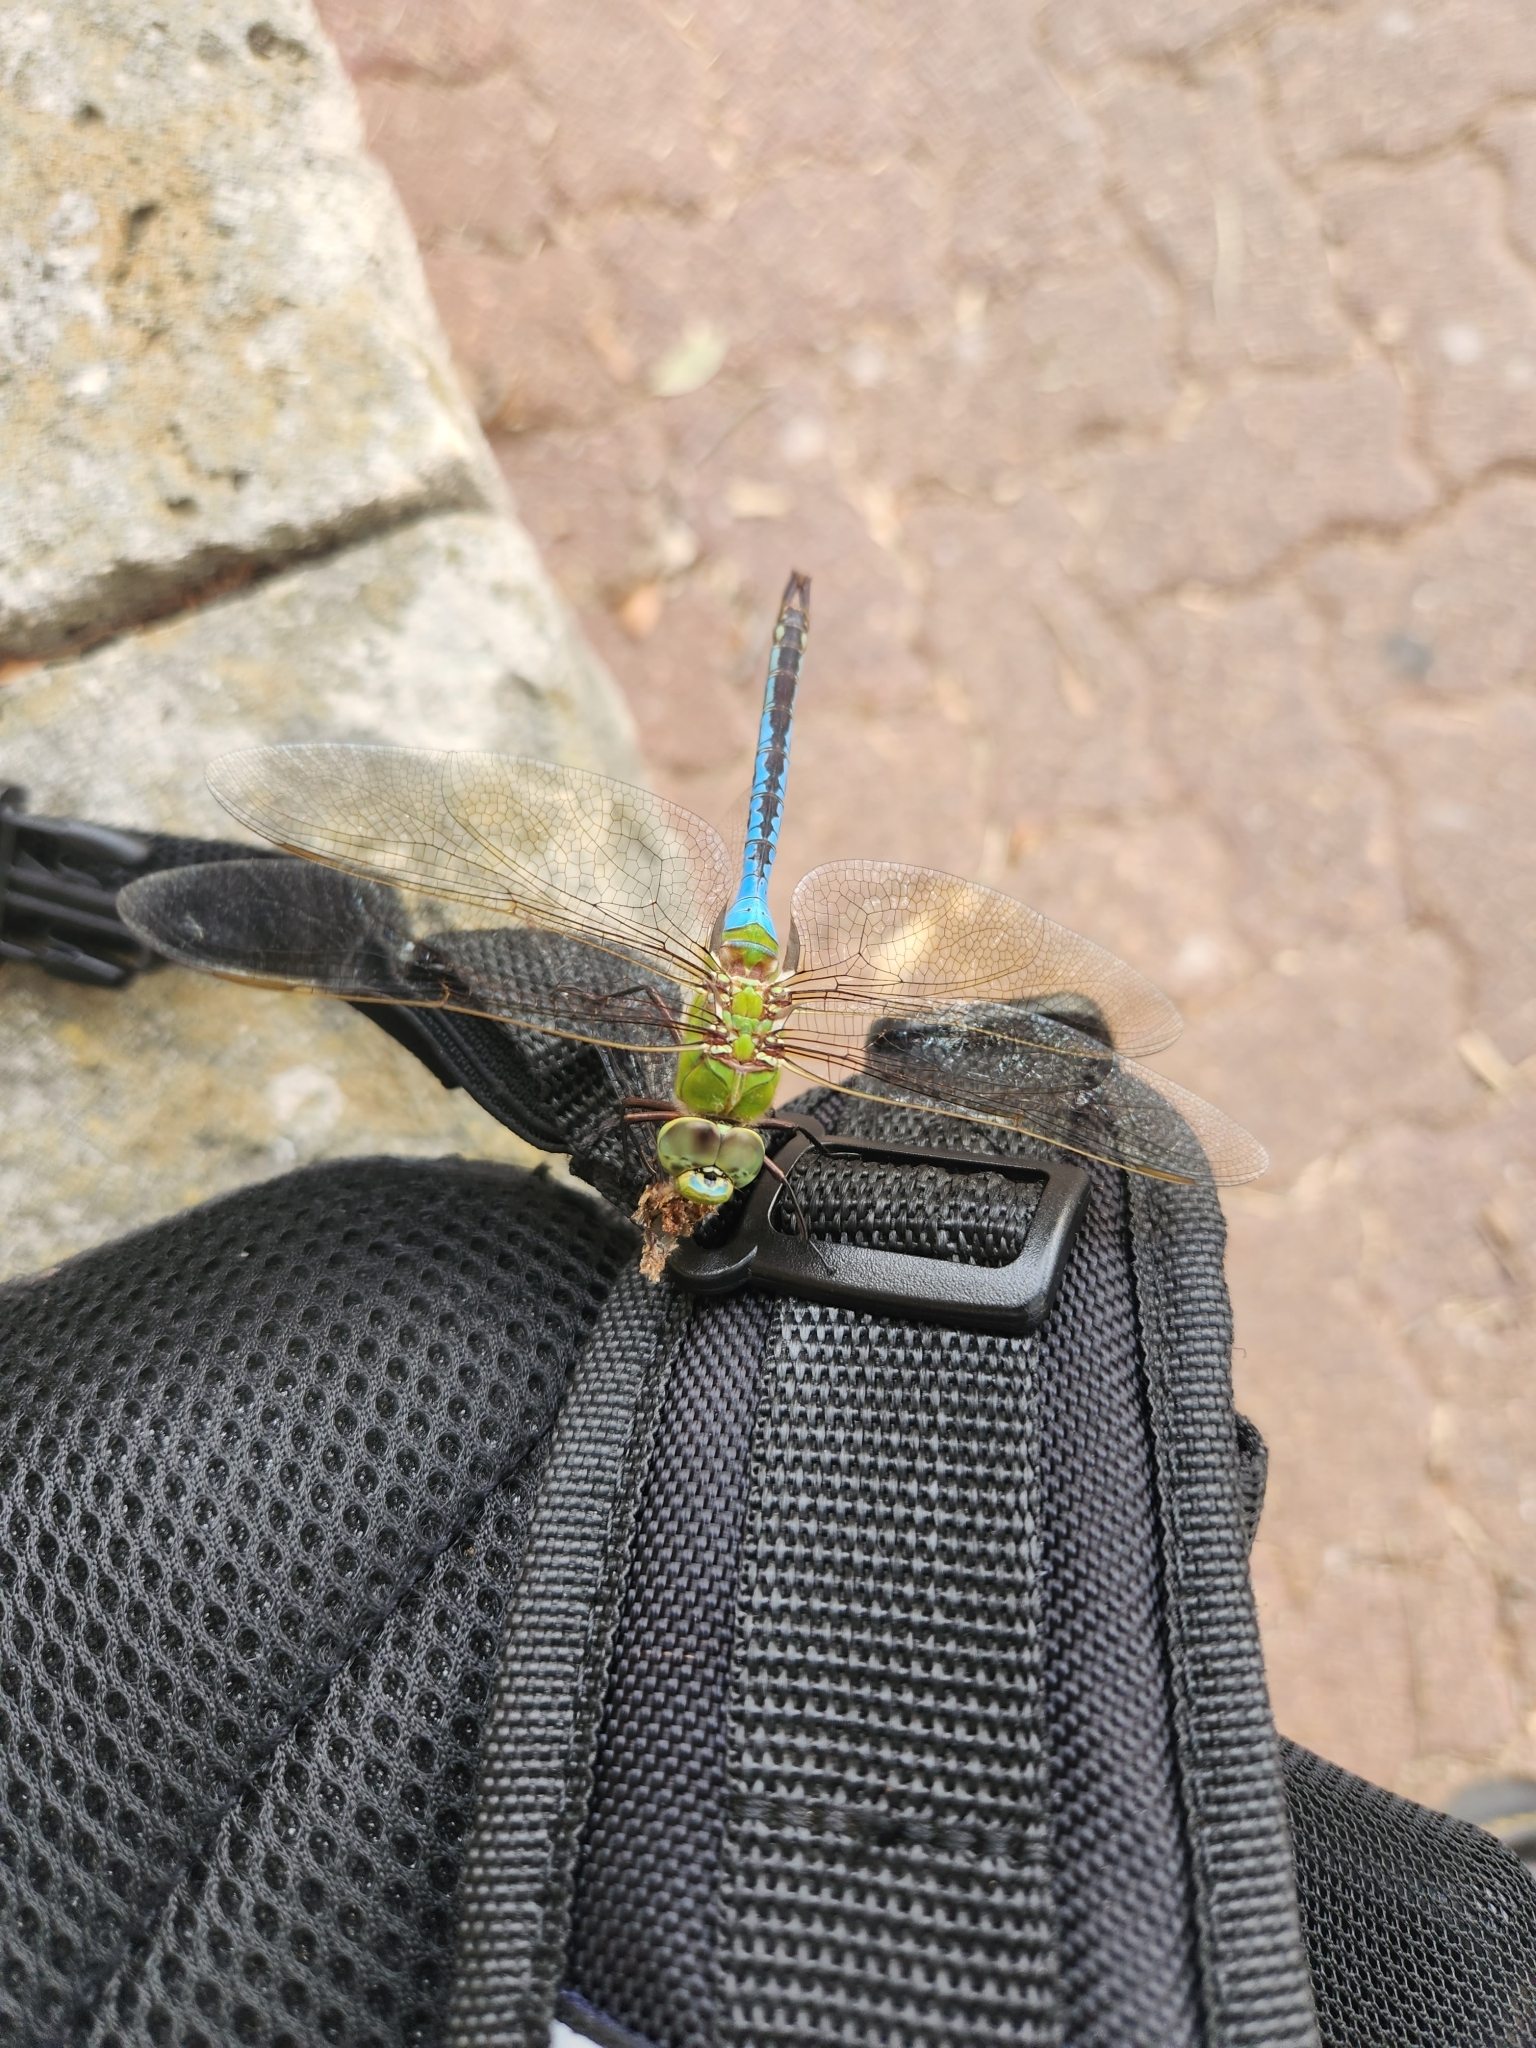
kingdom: Animalia
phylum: Arthropoda
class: Insecta
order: Odonata
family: Aeshnidae
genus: Anax
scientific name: Anax junius
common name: Common green darner
